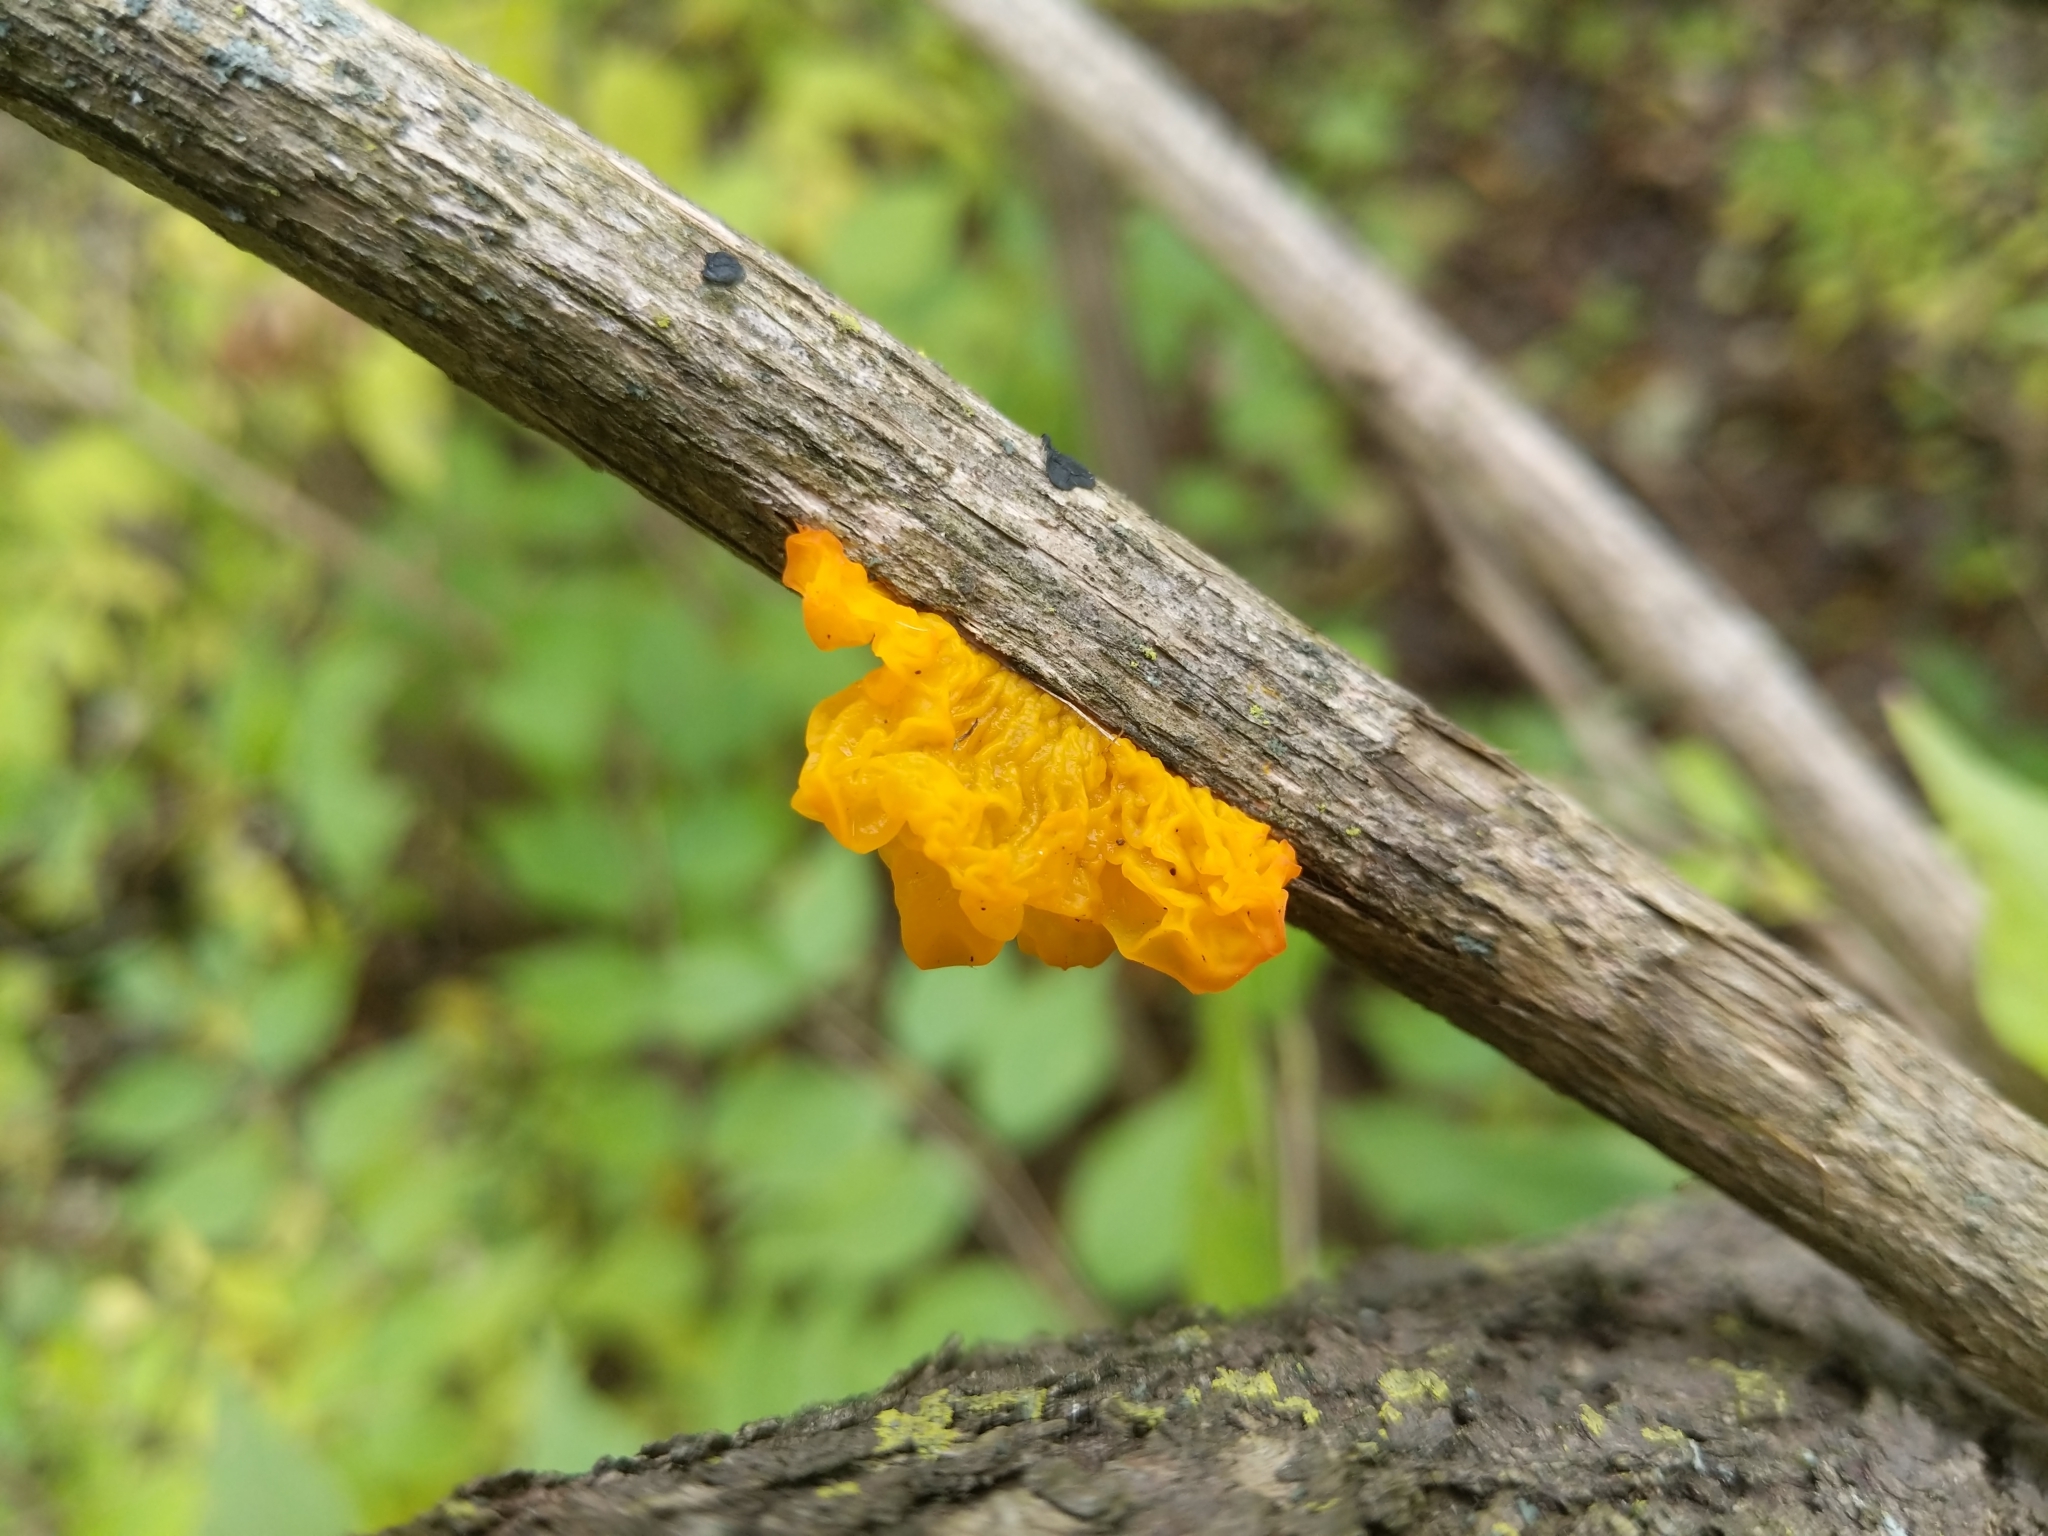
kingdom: Fungi
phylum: Basidiomycota
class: Tremellomycetes
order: Tremellales
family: Tremellaceae
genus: Tremella
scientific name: Tremella mesenterica
